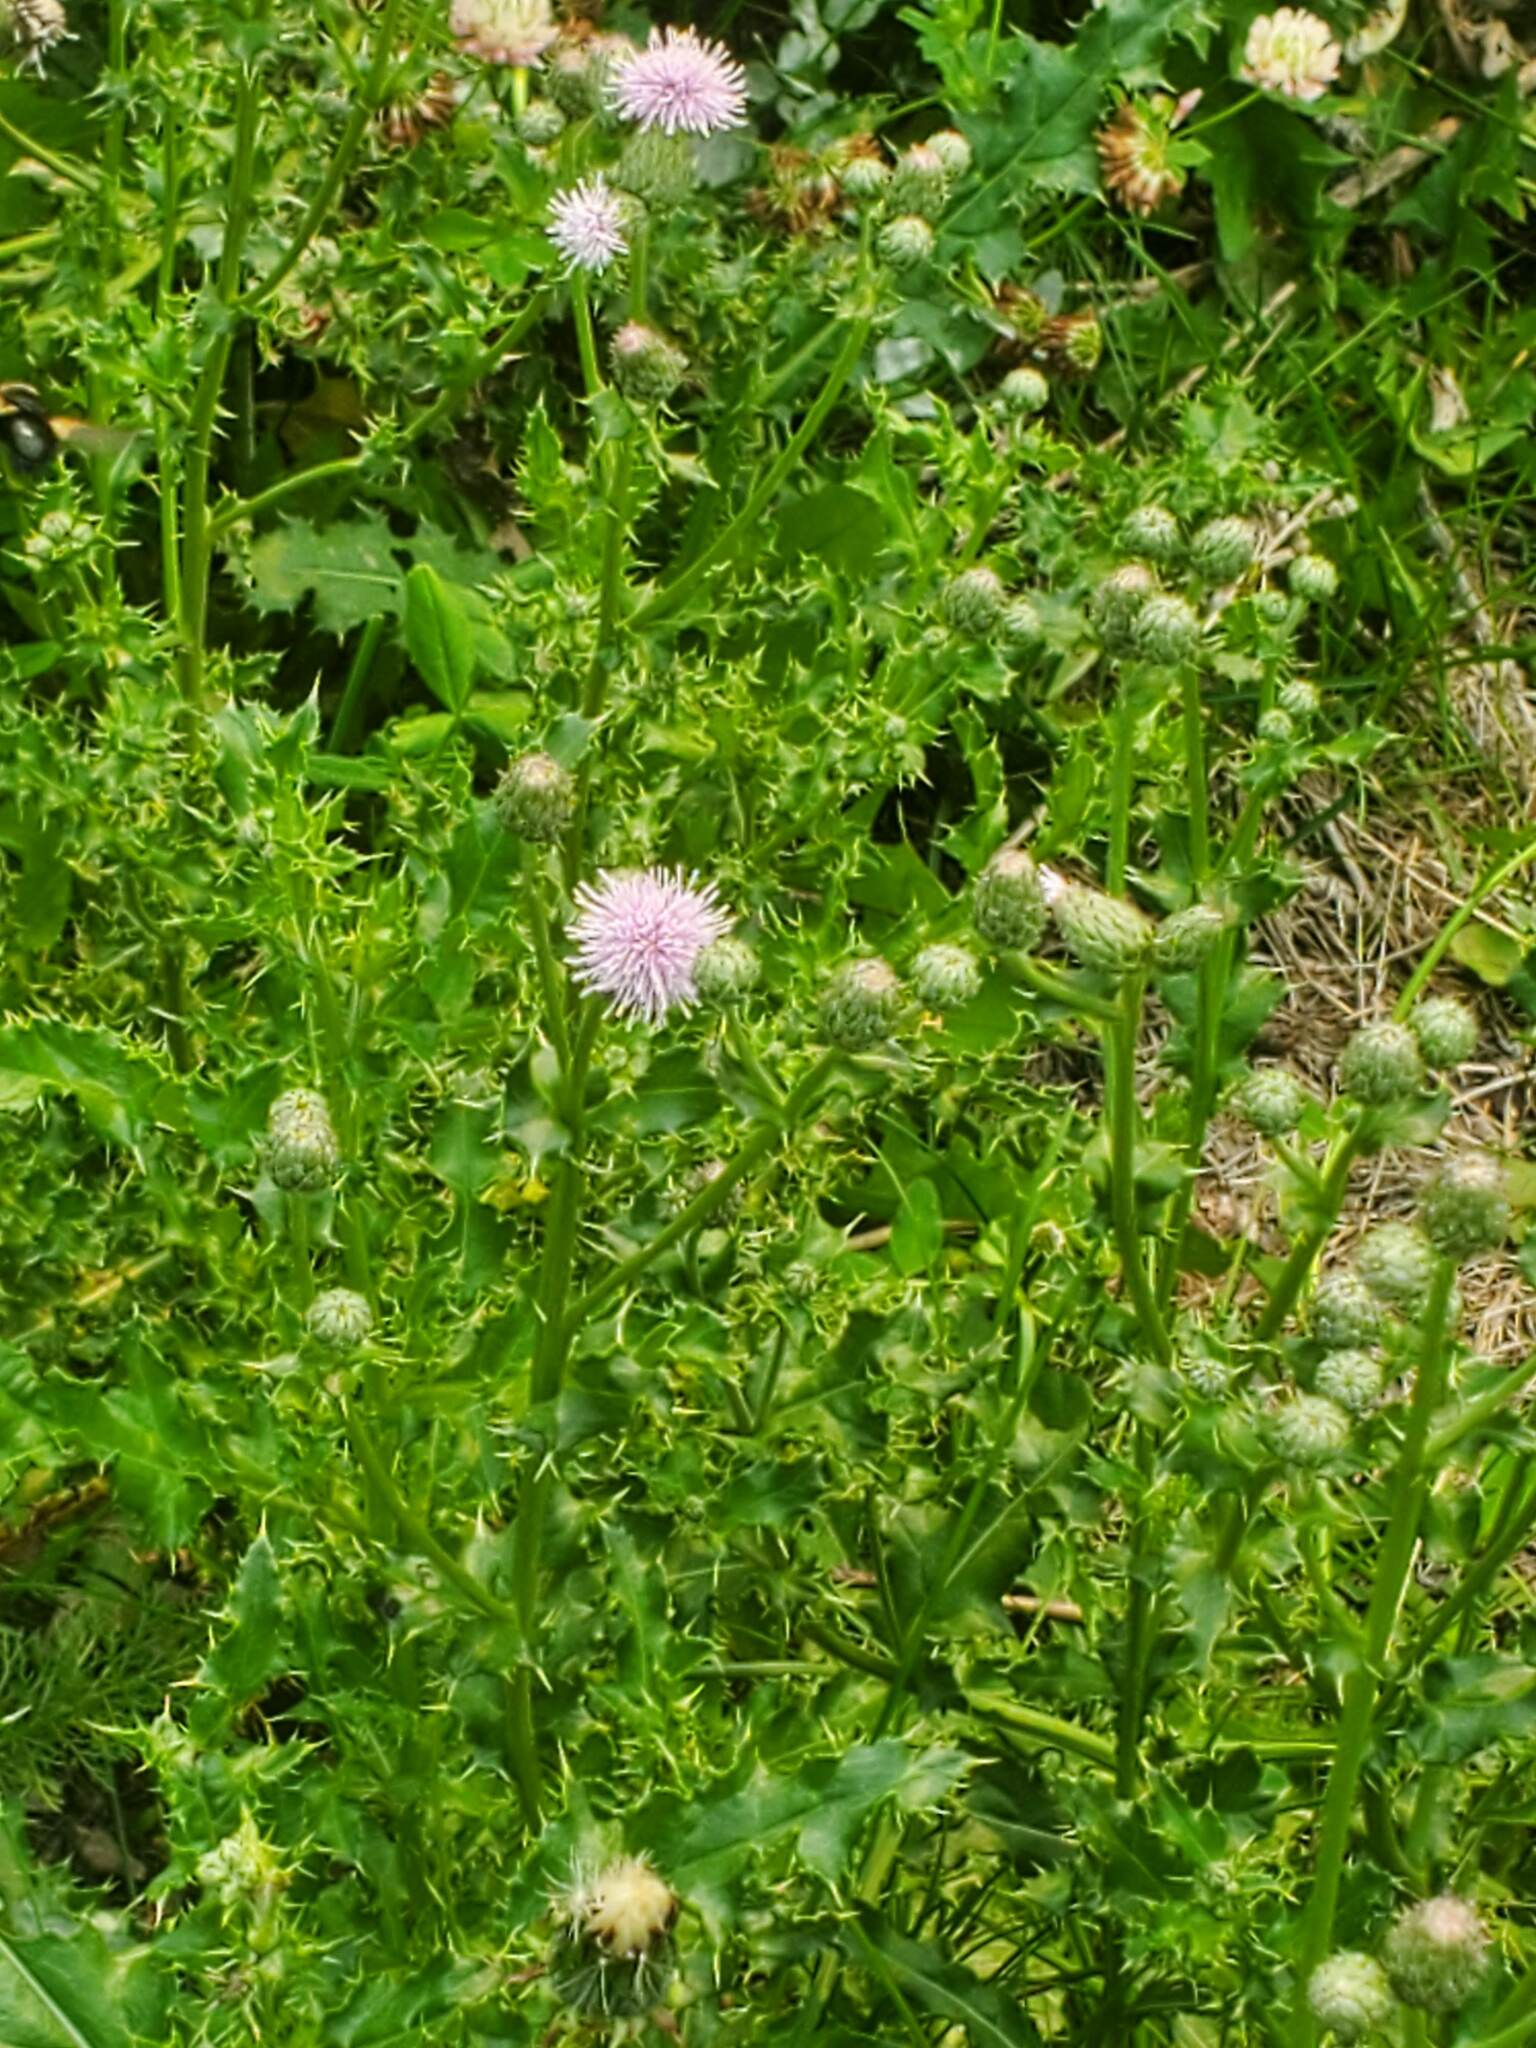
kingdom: Plantae
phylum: Tracheophyta
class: Magnoliopsida
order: Asterales
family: Asteraceae
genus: Cirsium
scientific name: Cirsium arvense
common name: Creeping thistle
